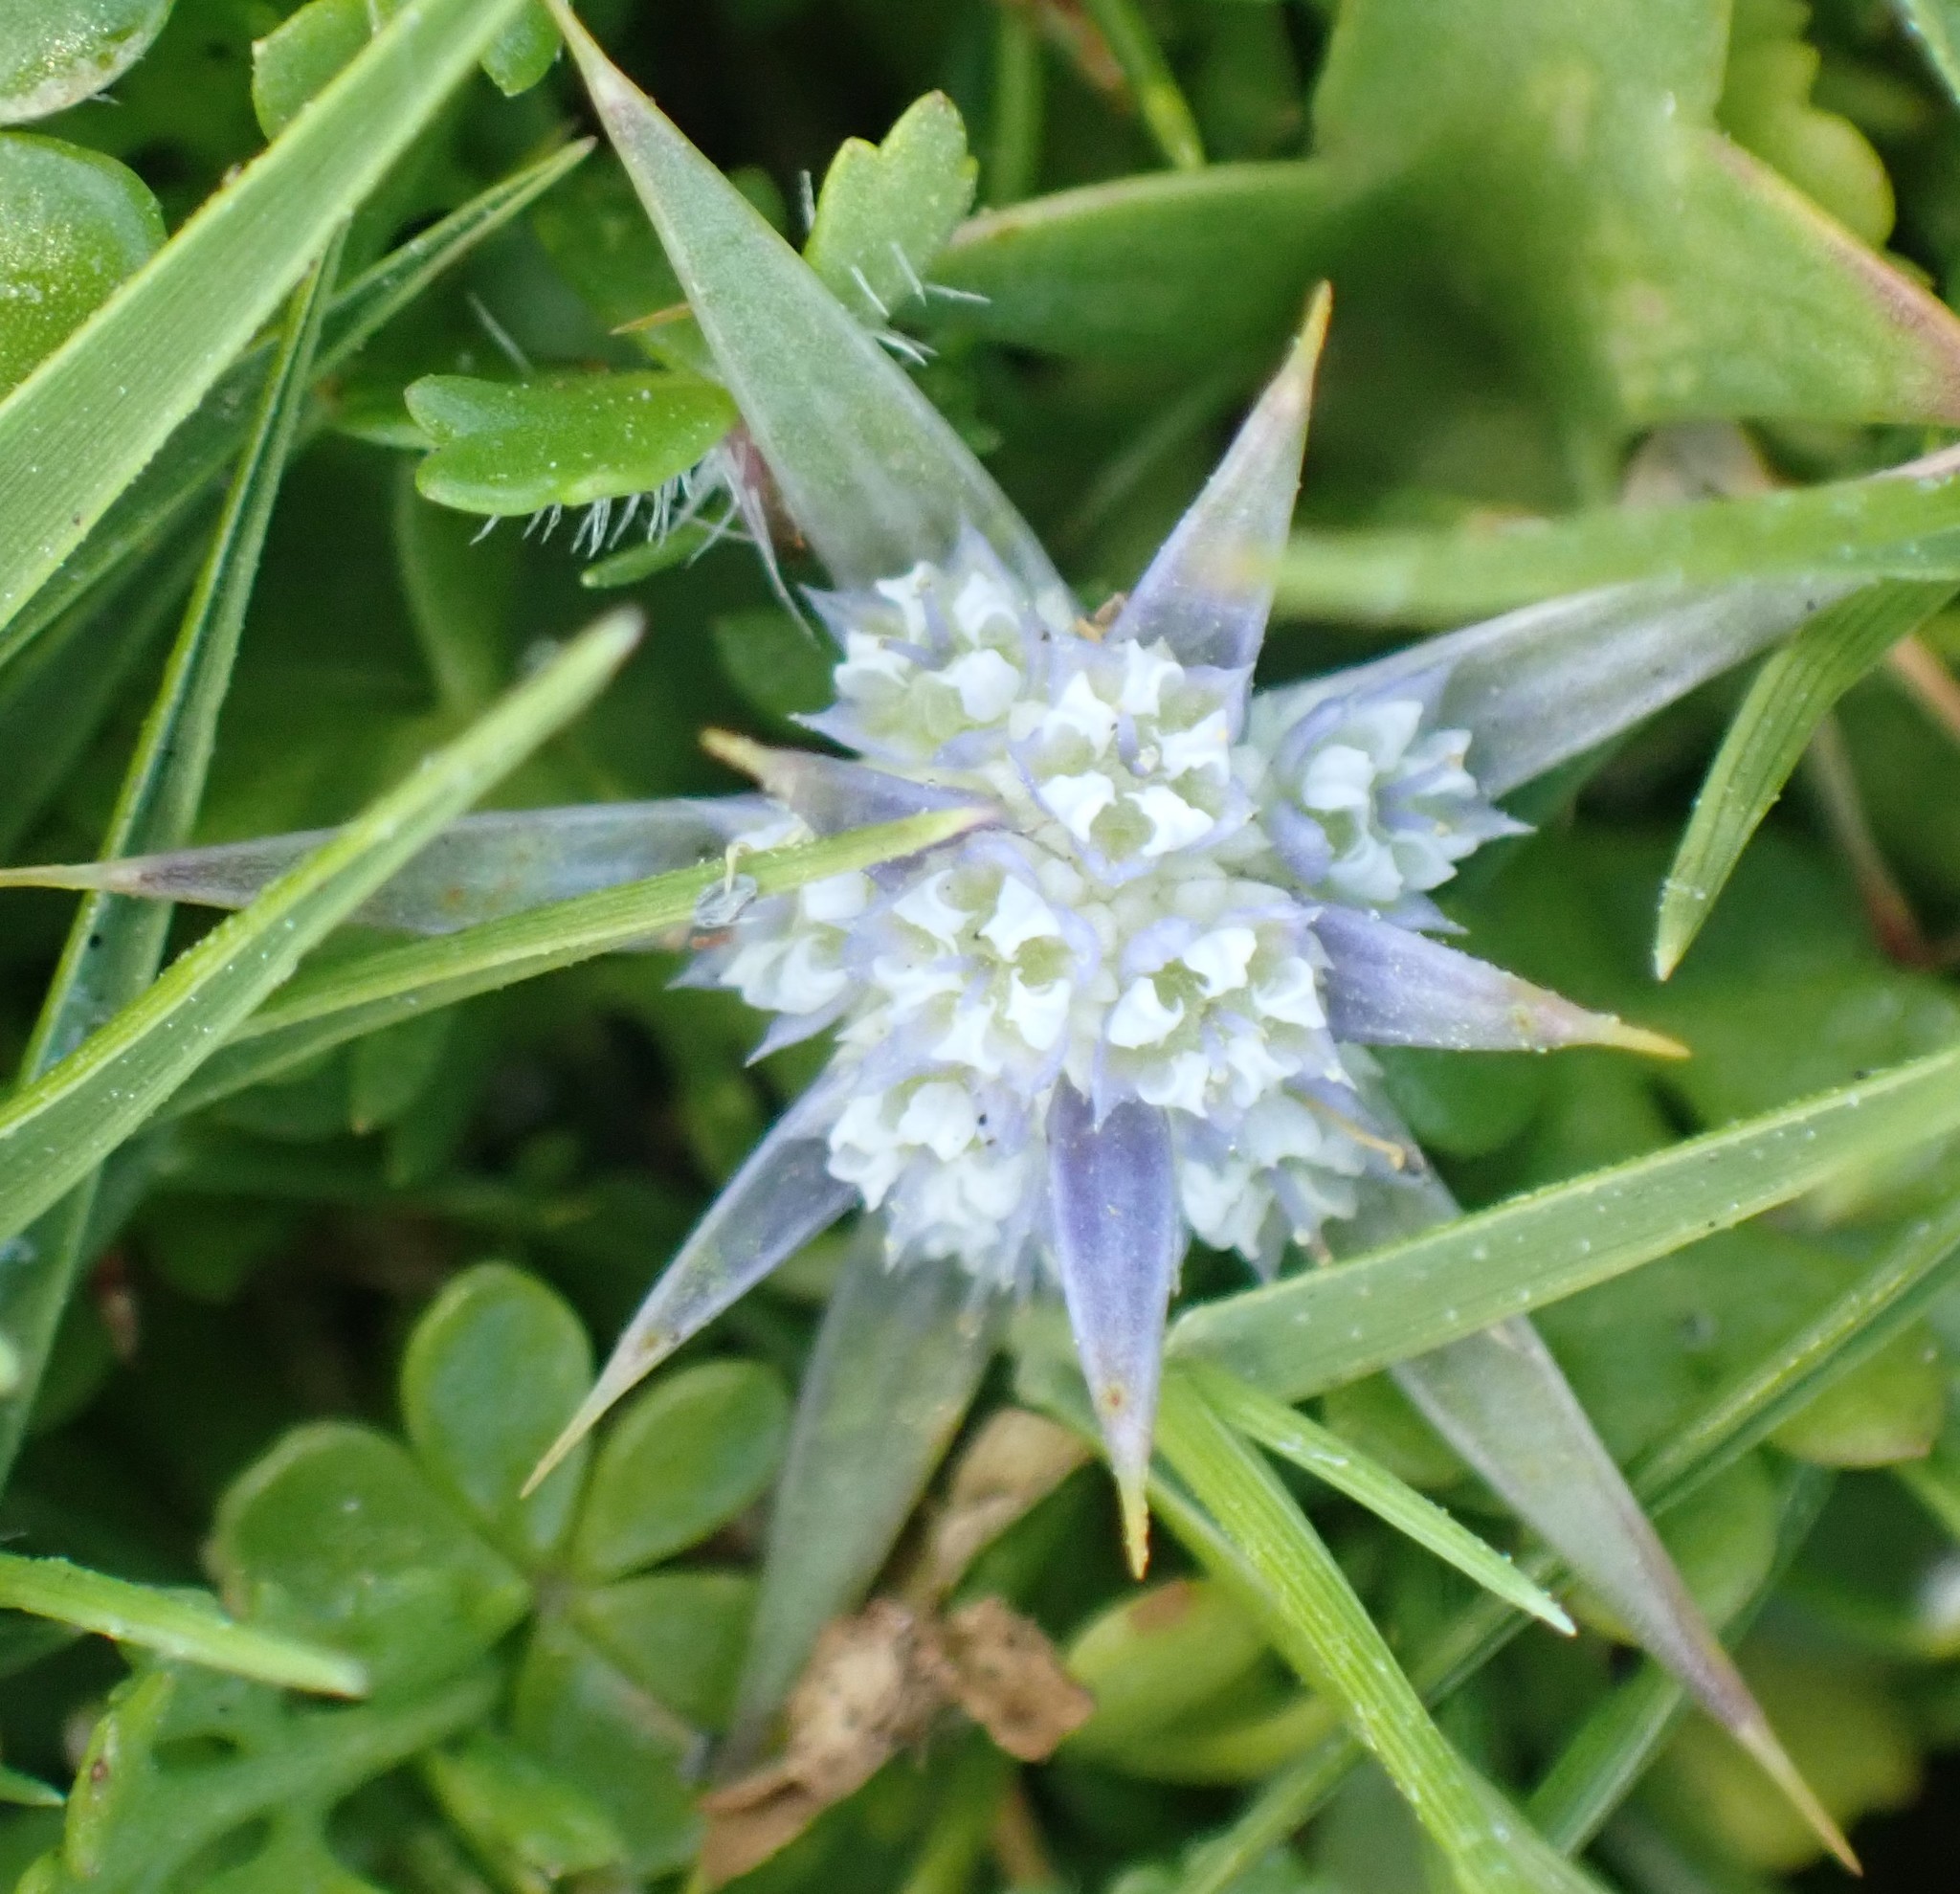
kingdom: Plantae
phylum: Tracheophyta
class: Magnoliopsida
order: Apiales
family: Apiaceae
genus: Eryngium
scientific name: Eryngium vesiculosum
